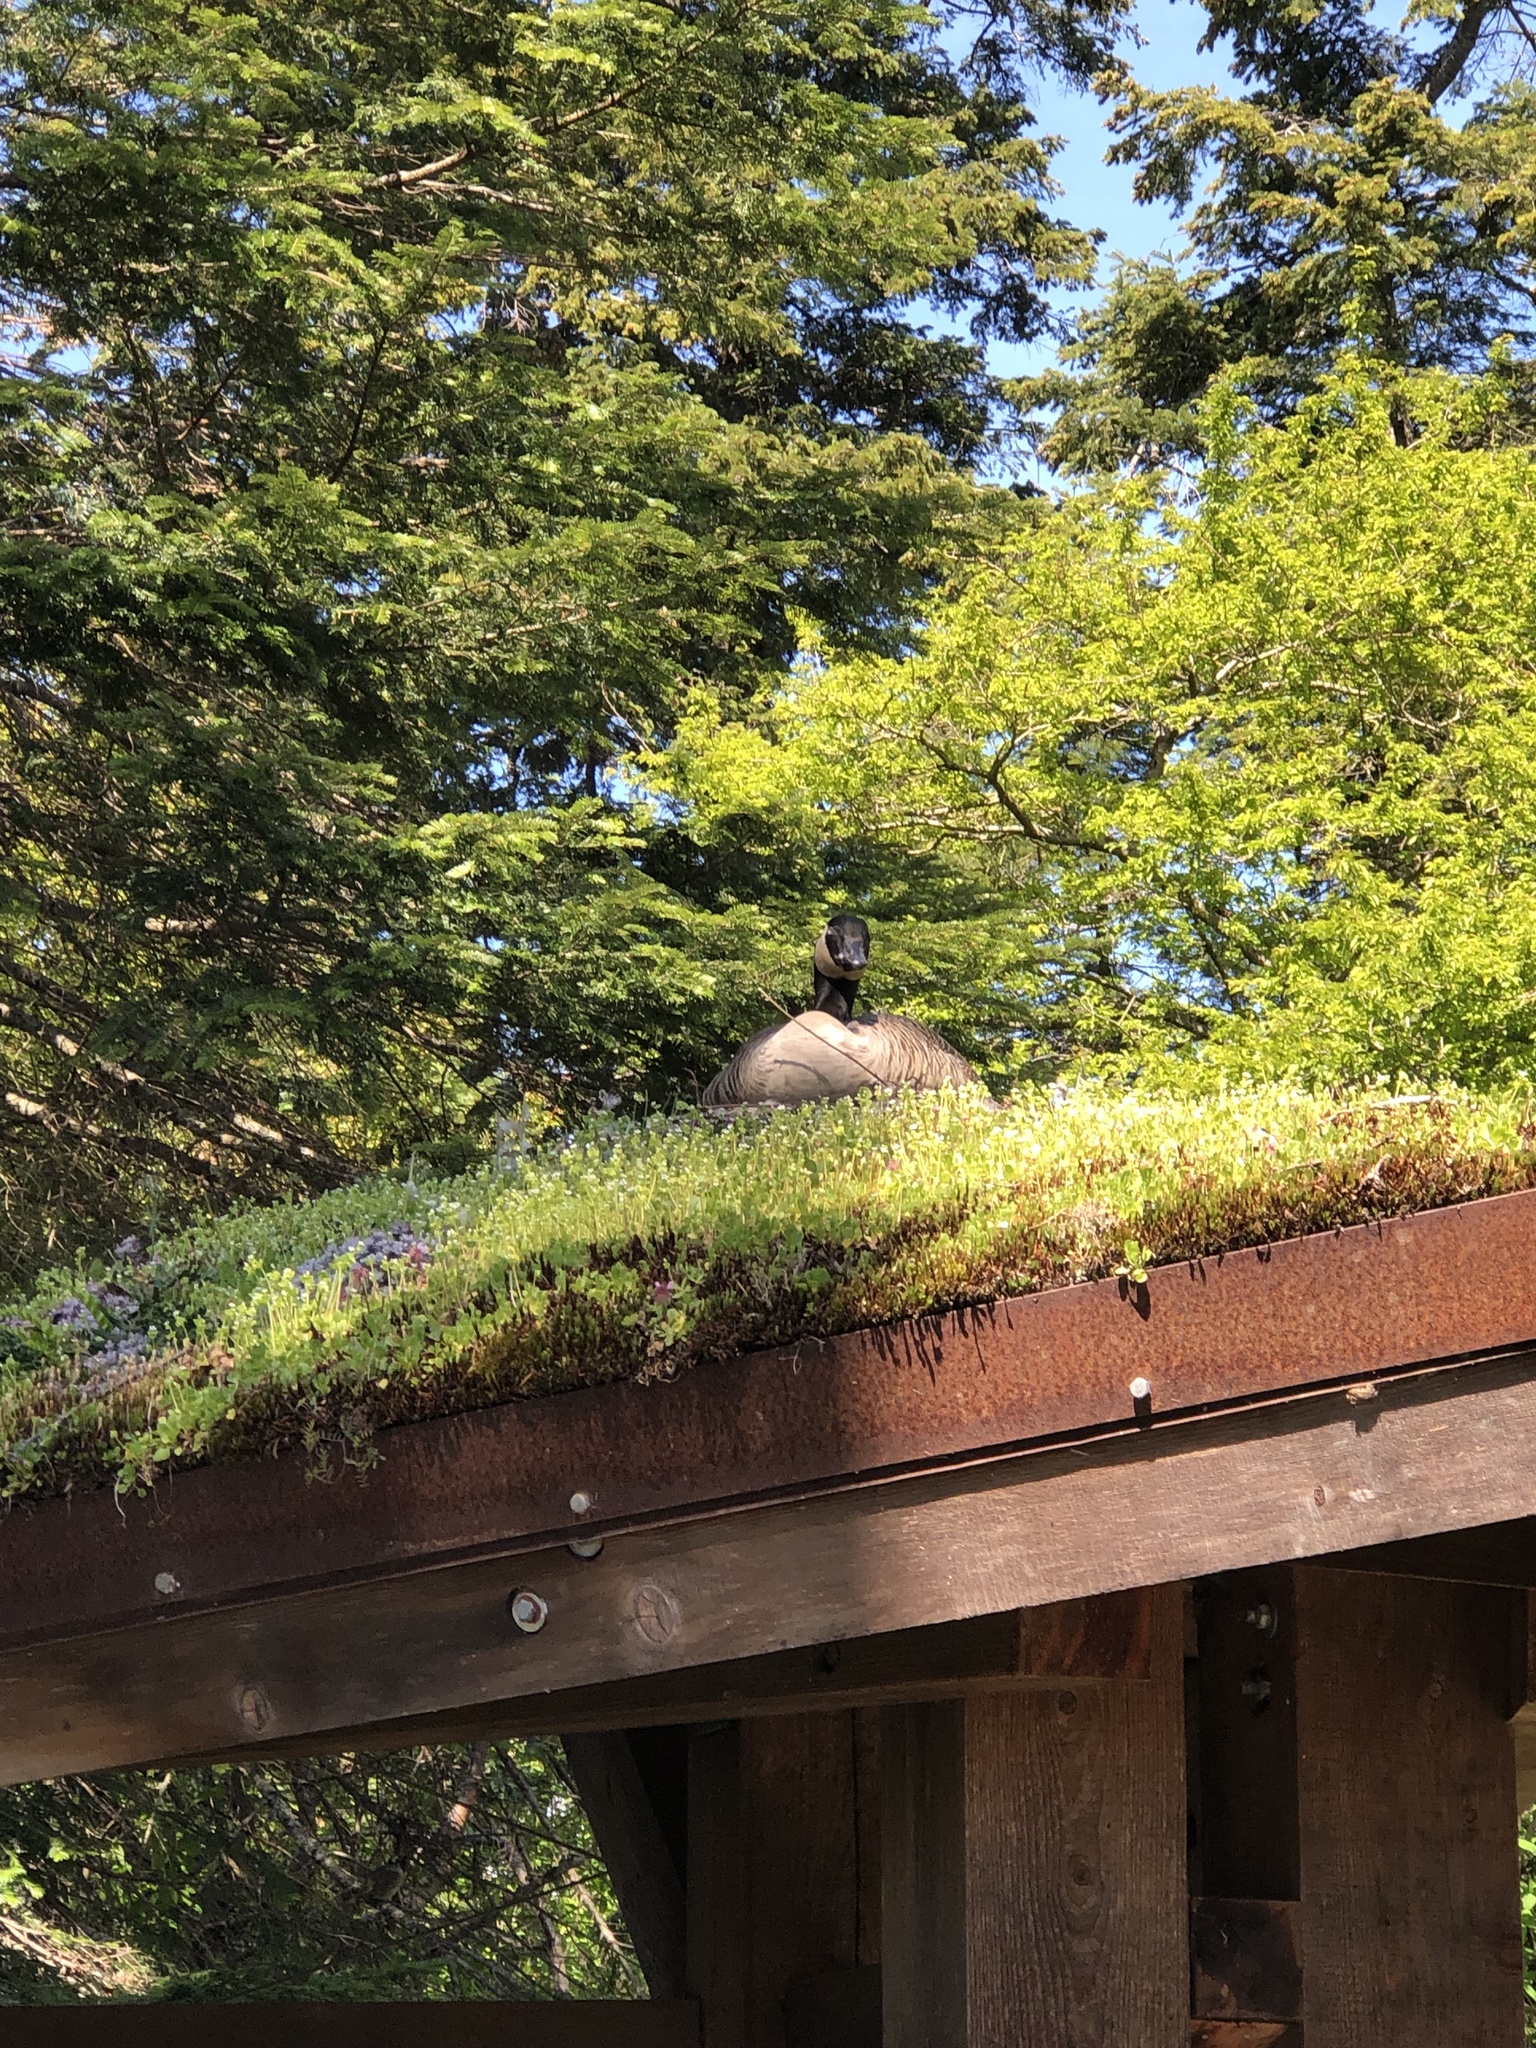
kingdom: Animalia
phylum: Chordata
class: Aves
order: Anseriformes
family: Anatidae
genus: Branta
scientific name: Branta canadensis
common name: Canada goose
